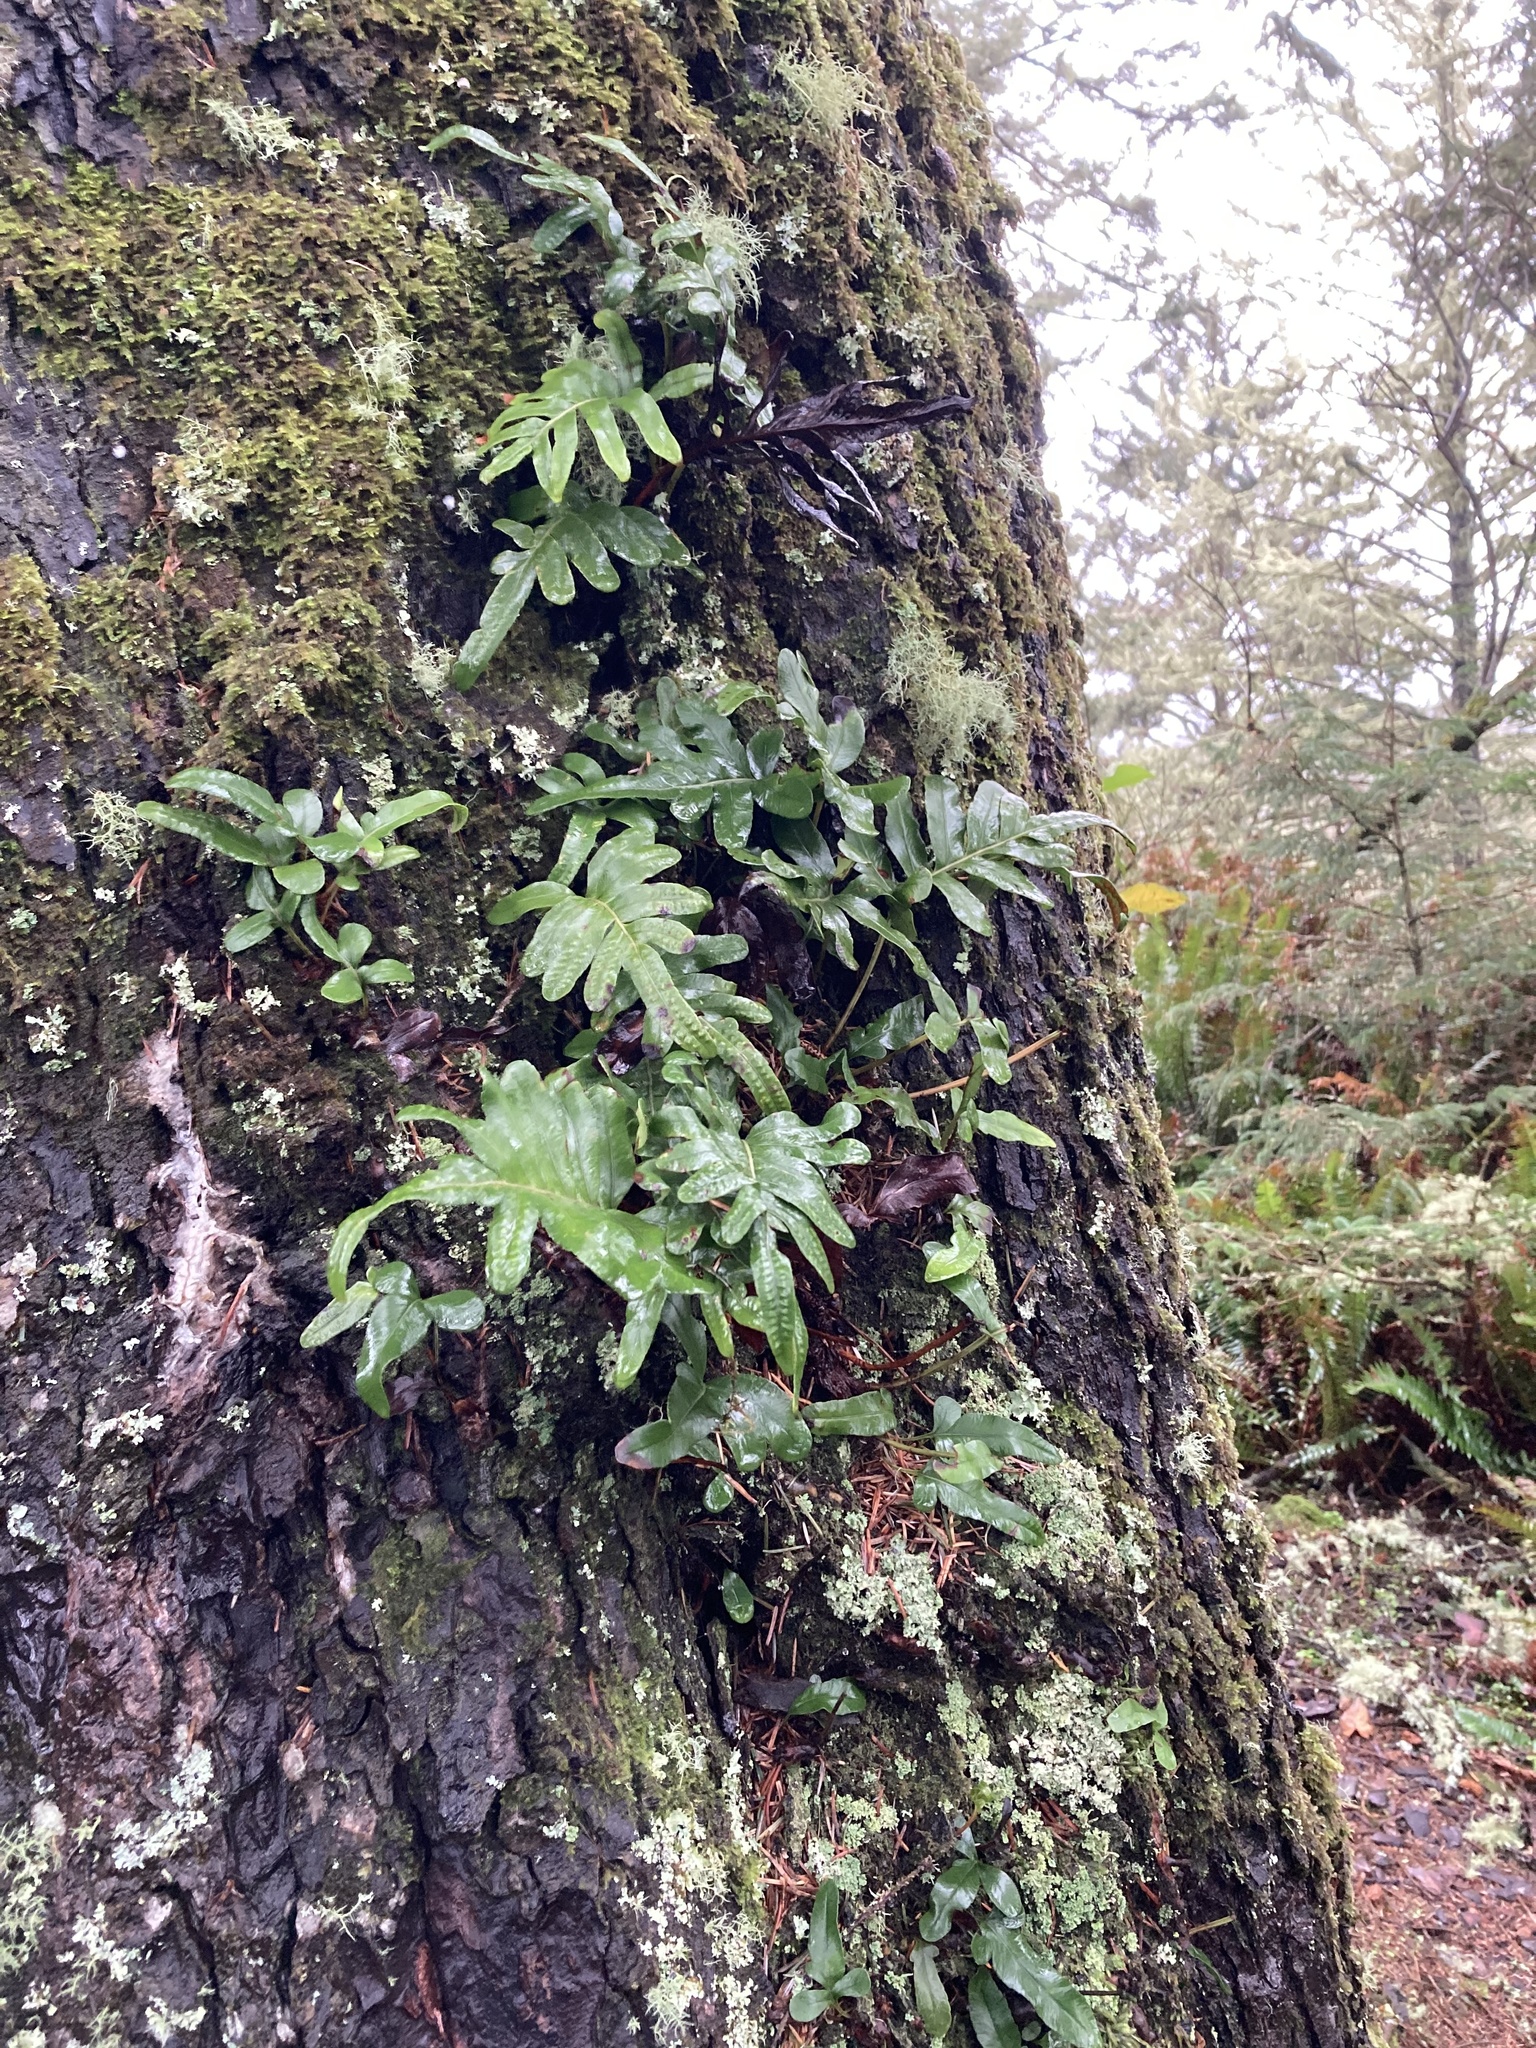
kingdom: Plantae
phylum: Tracheophyta
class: Polypodiopsida
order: Polypodiales
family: Polypodiaceae
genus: Polypodium
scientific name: Polypodium scouleri
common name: Scouler's polypody
